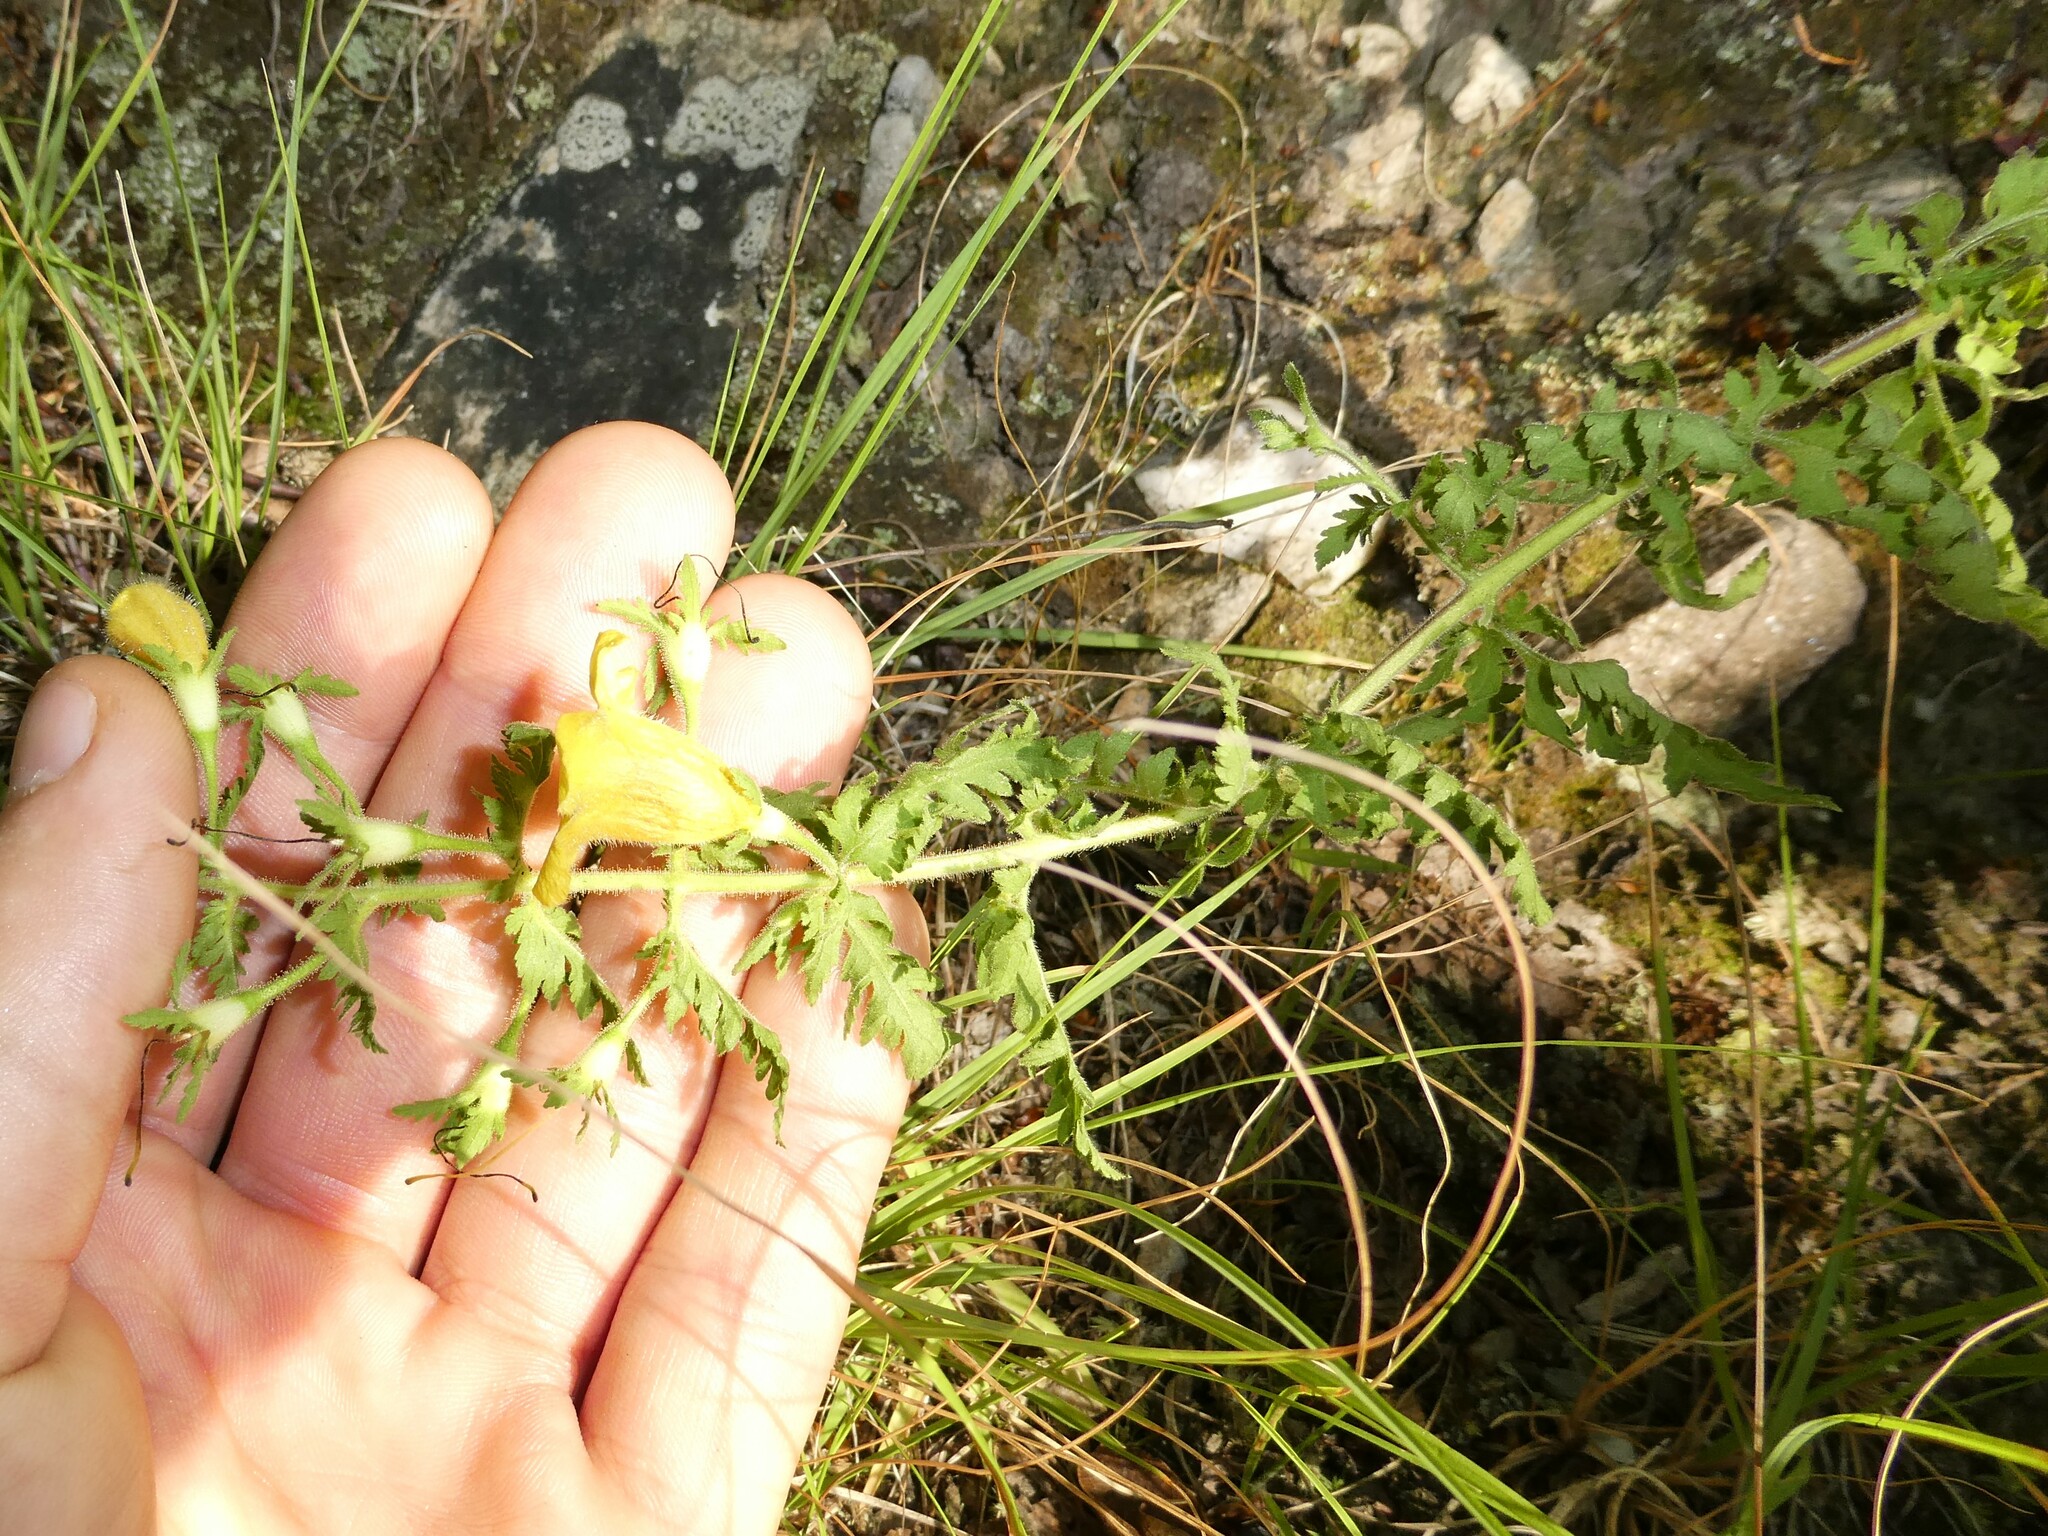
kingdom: Plantae
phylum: Tracheophyta
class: Magnoliopsida
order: Lamiales
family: Orobanchaceae
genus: Aureolaria
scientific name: Aureolaria pedicularia
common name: Annual false foxglove
